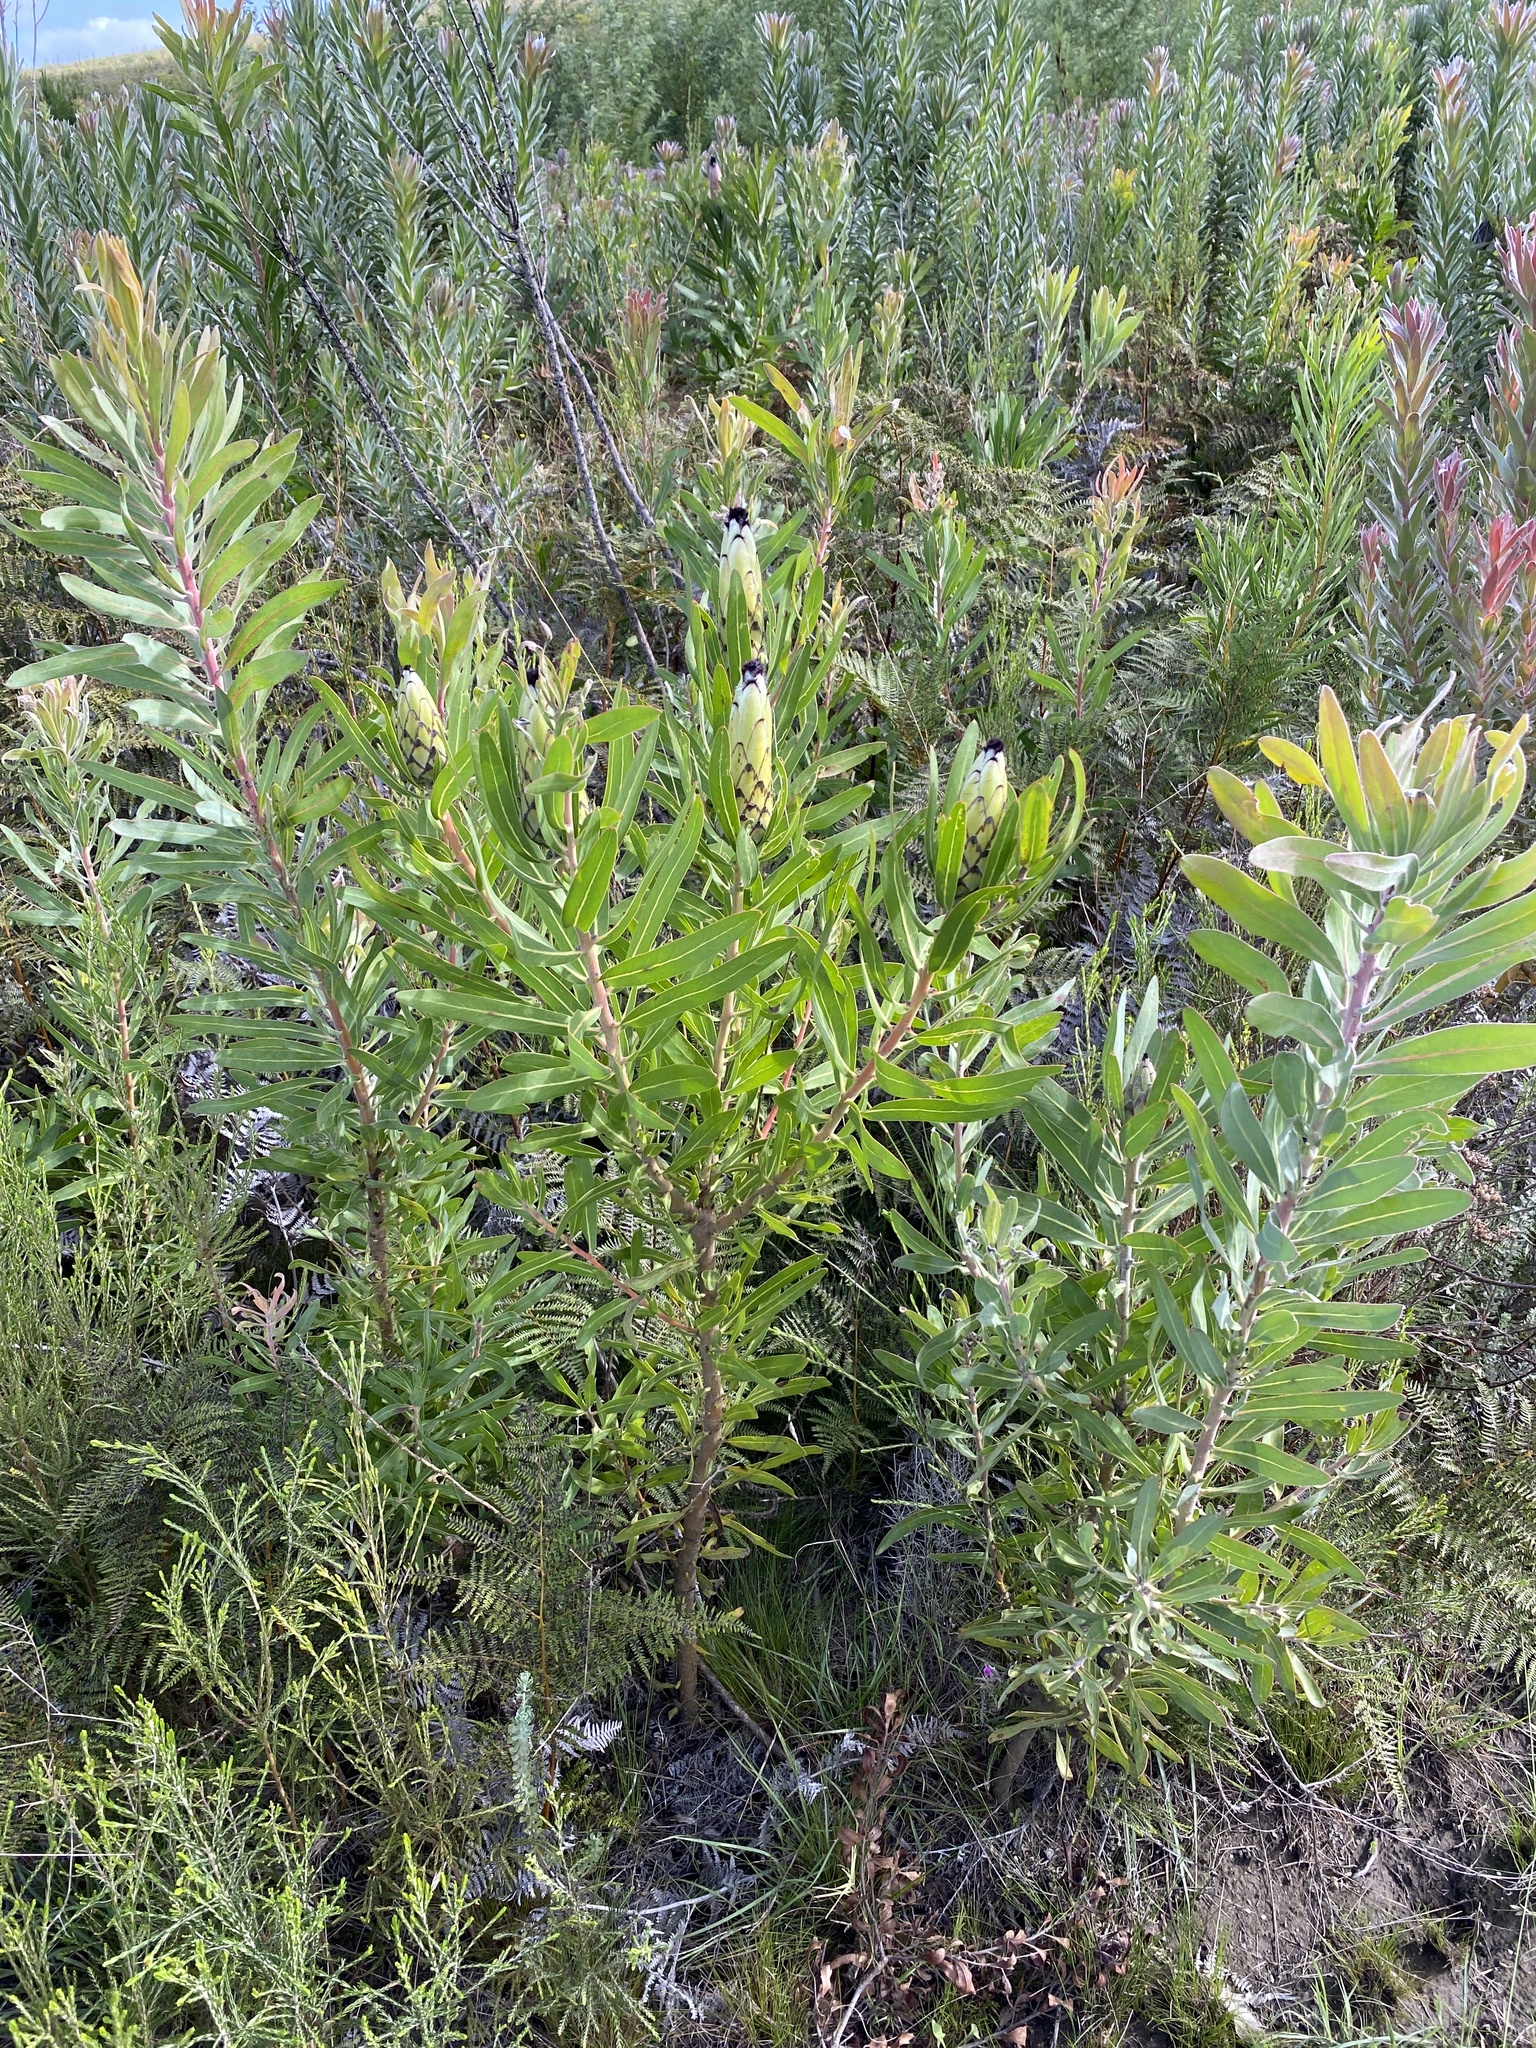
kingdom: Plantae
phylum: Tracheophyta
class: Magnoliopsida
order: Proteales
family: Proteaceae
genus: Protea
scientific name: Protea neriifolia
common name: Blue sugarbush
